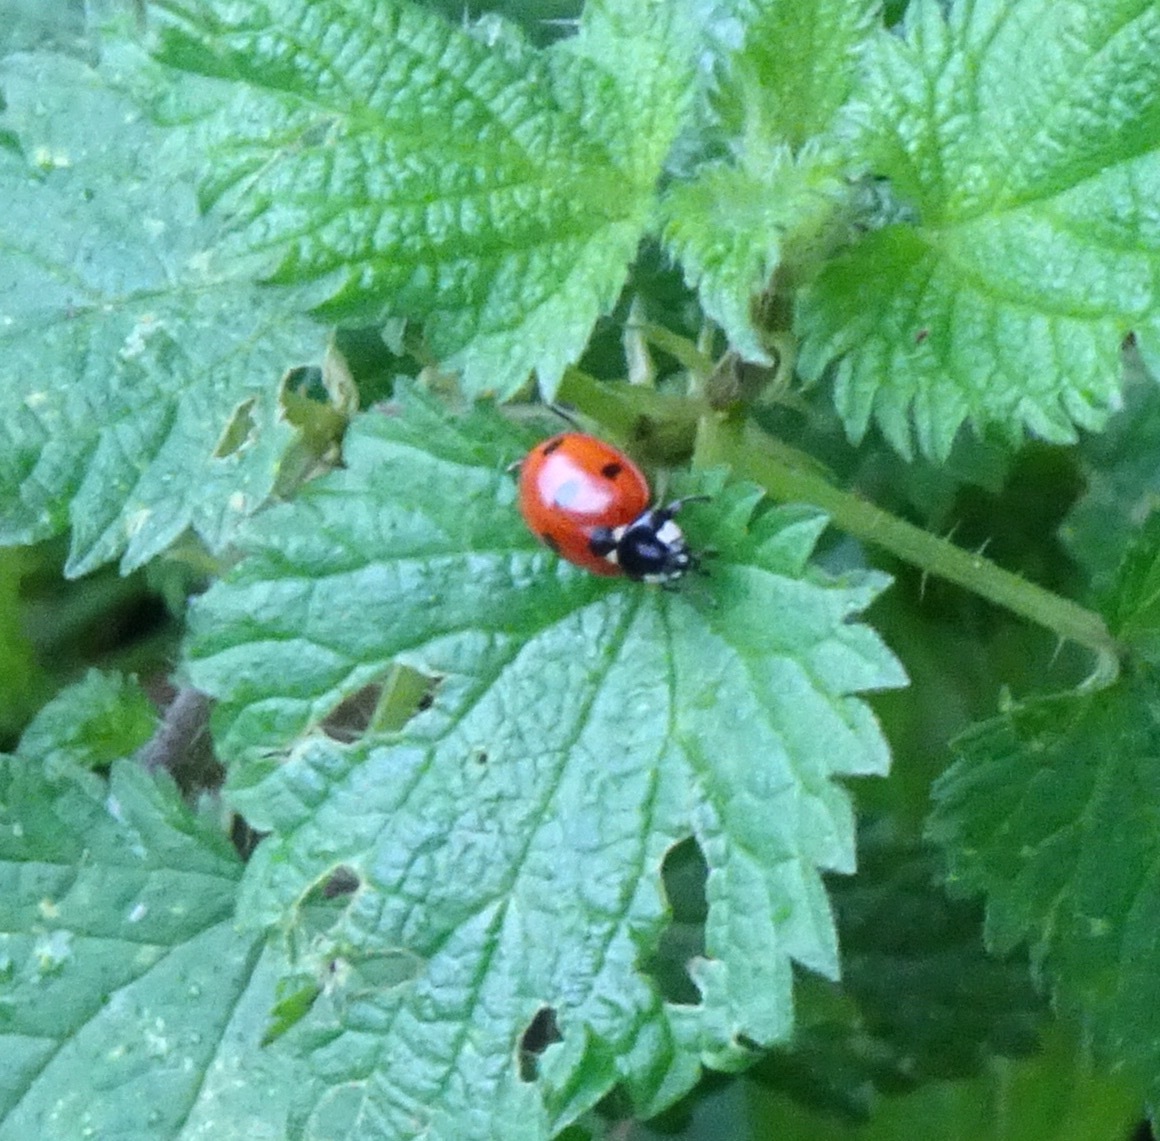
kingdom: Animalia
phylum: Arthropoda
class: Insecta
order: Coleoptera
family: Coccinellidae
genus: Coccinella
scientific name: Coccinella septempunctata
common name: Sevenspotted lady beetle
